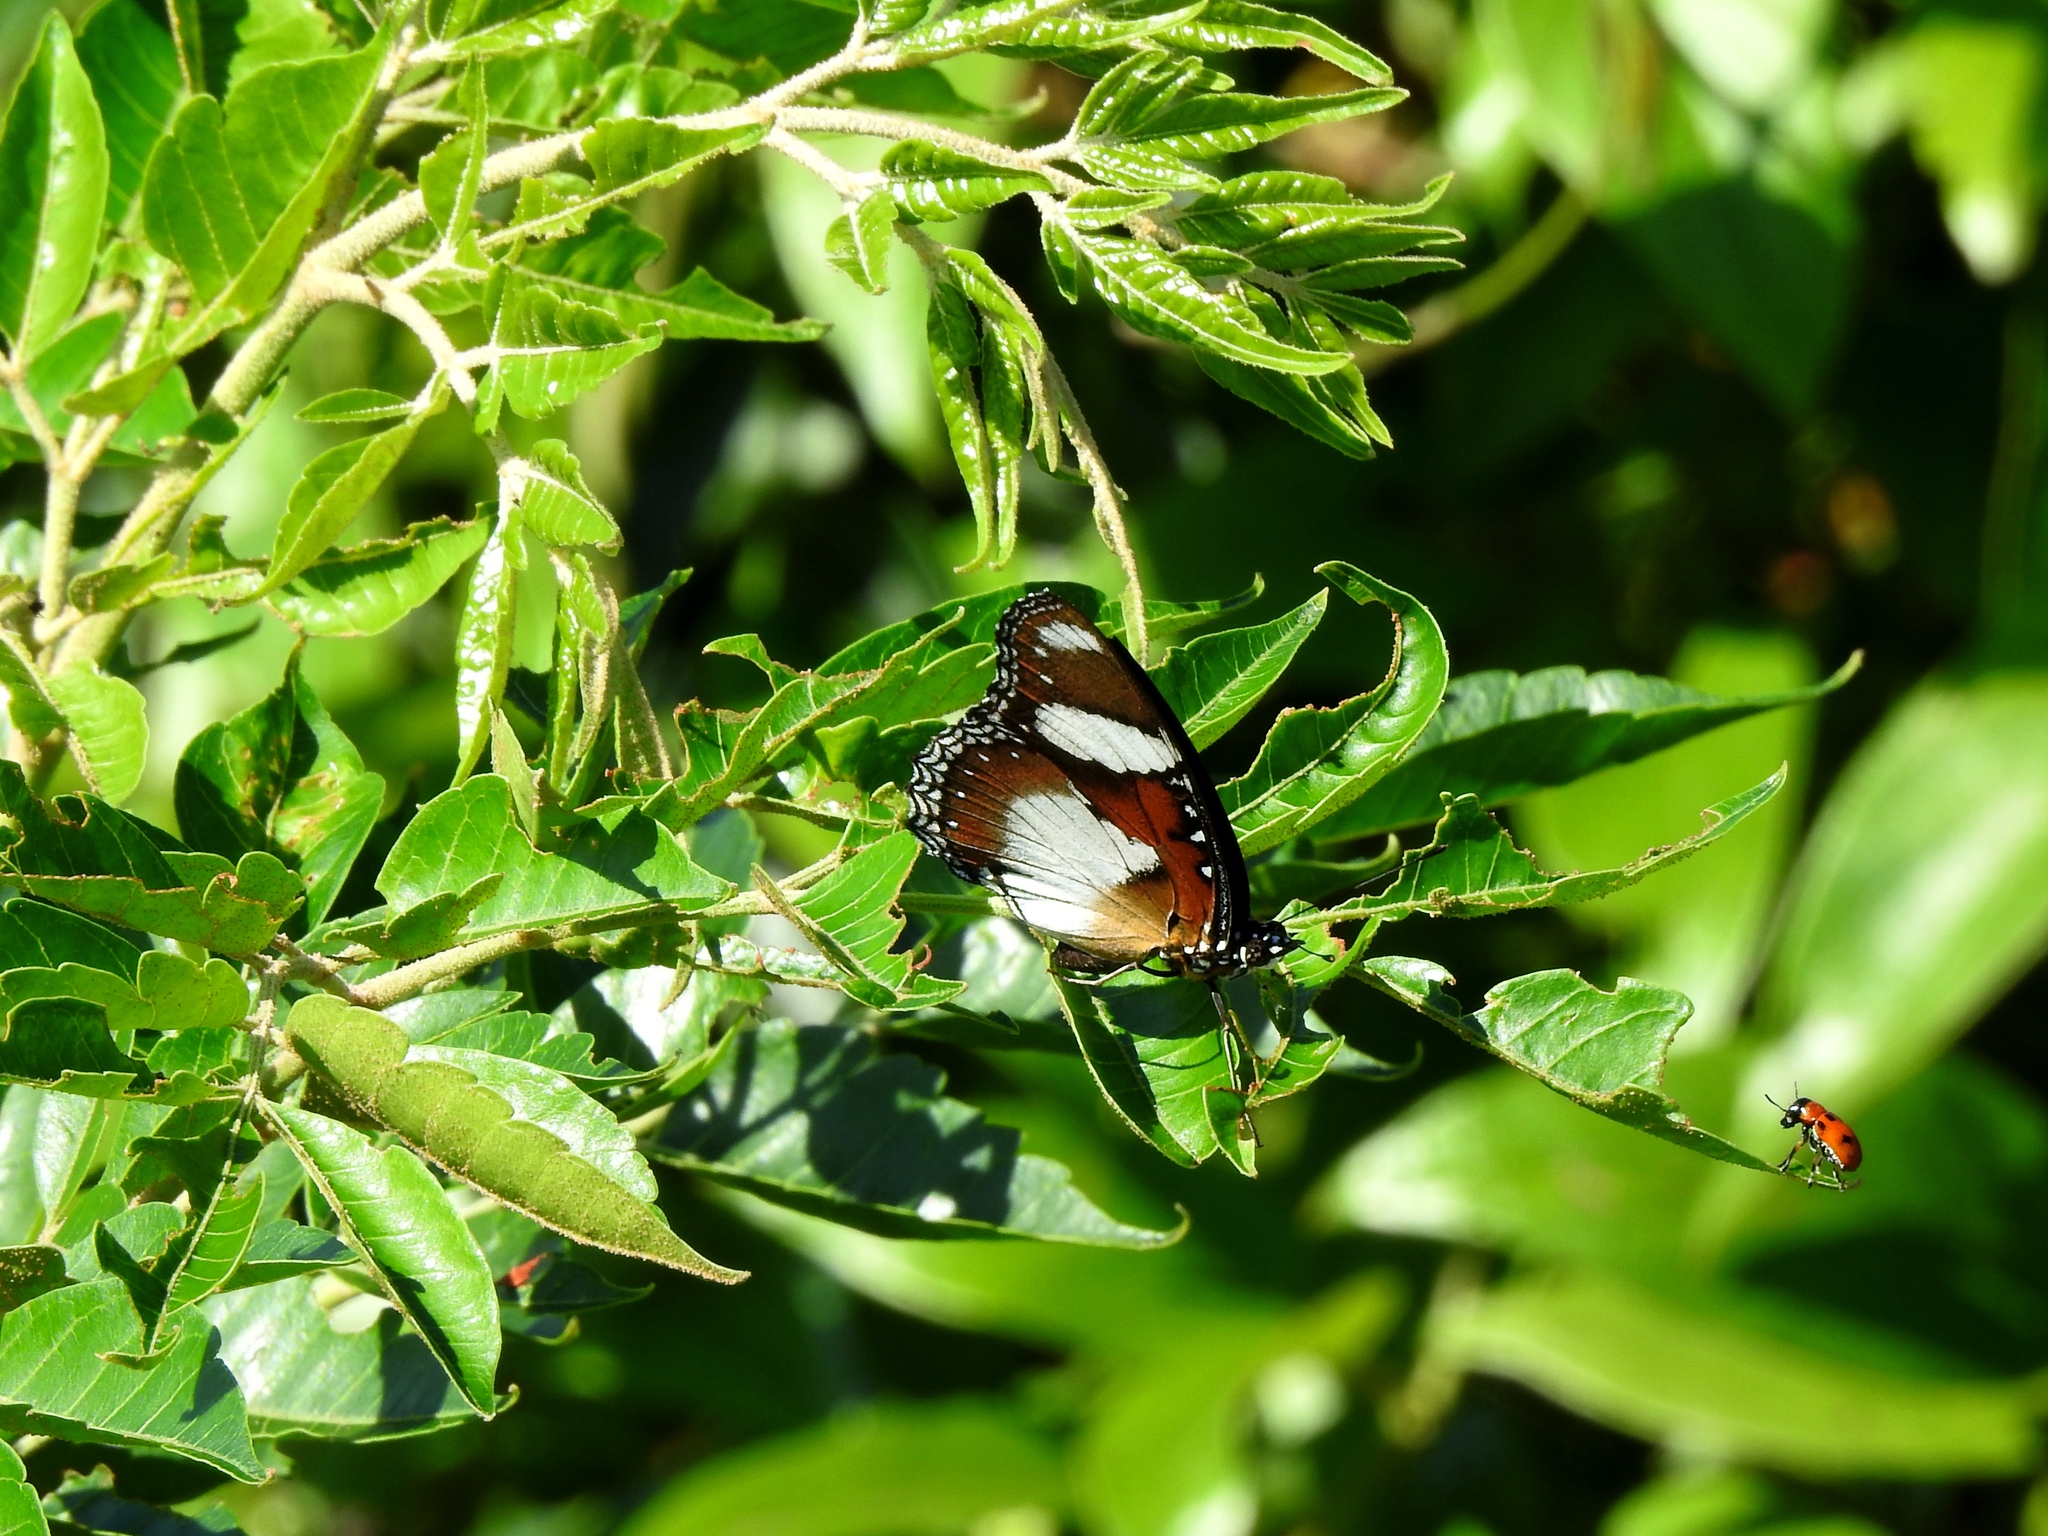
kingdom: Animalia
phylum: Arthropoda
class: Insecta
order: Lepidoptera
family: Nymphalidae
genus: Hypolimnas
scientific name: Hypolimnas misippus
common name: False plain tiger
